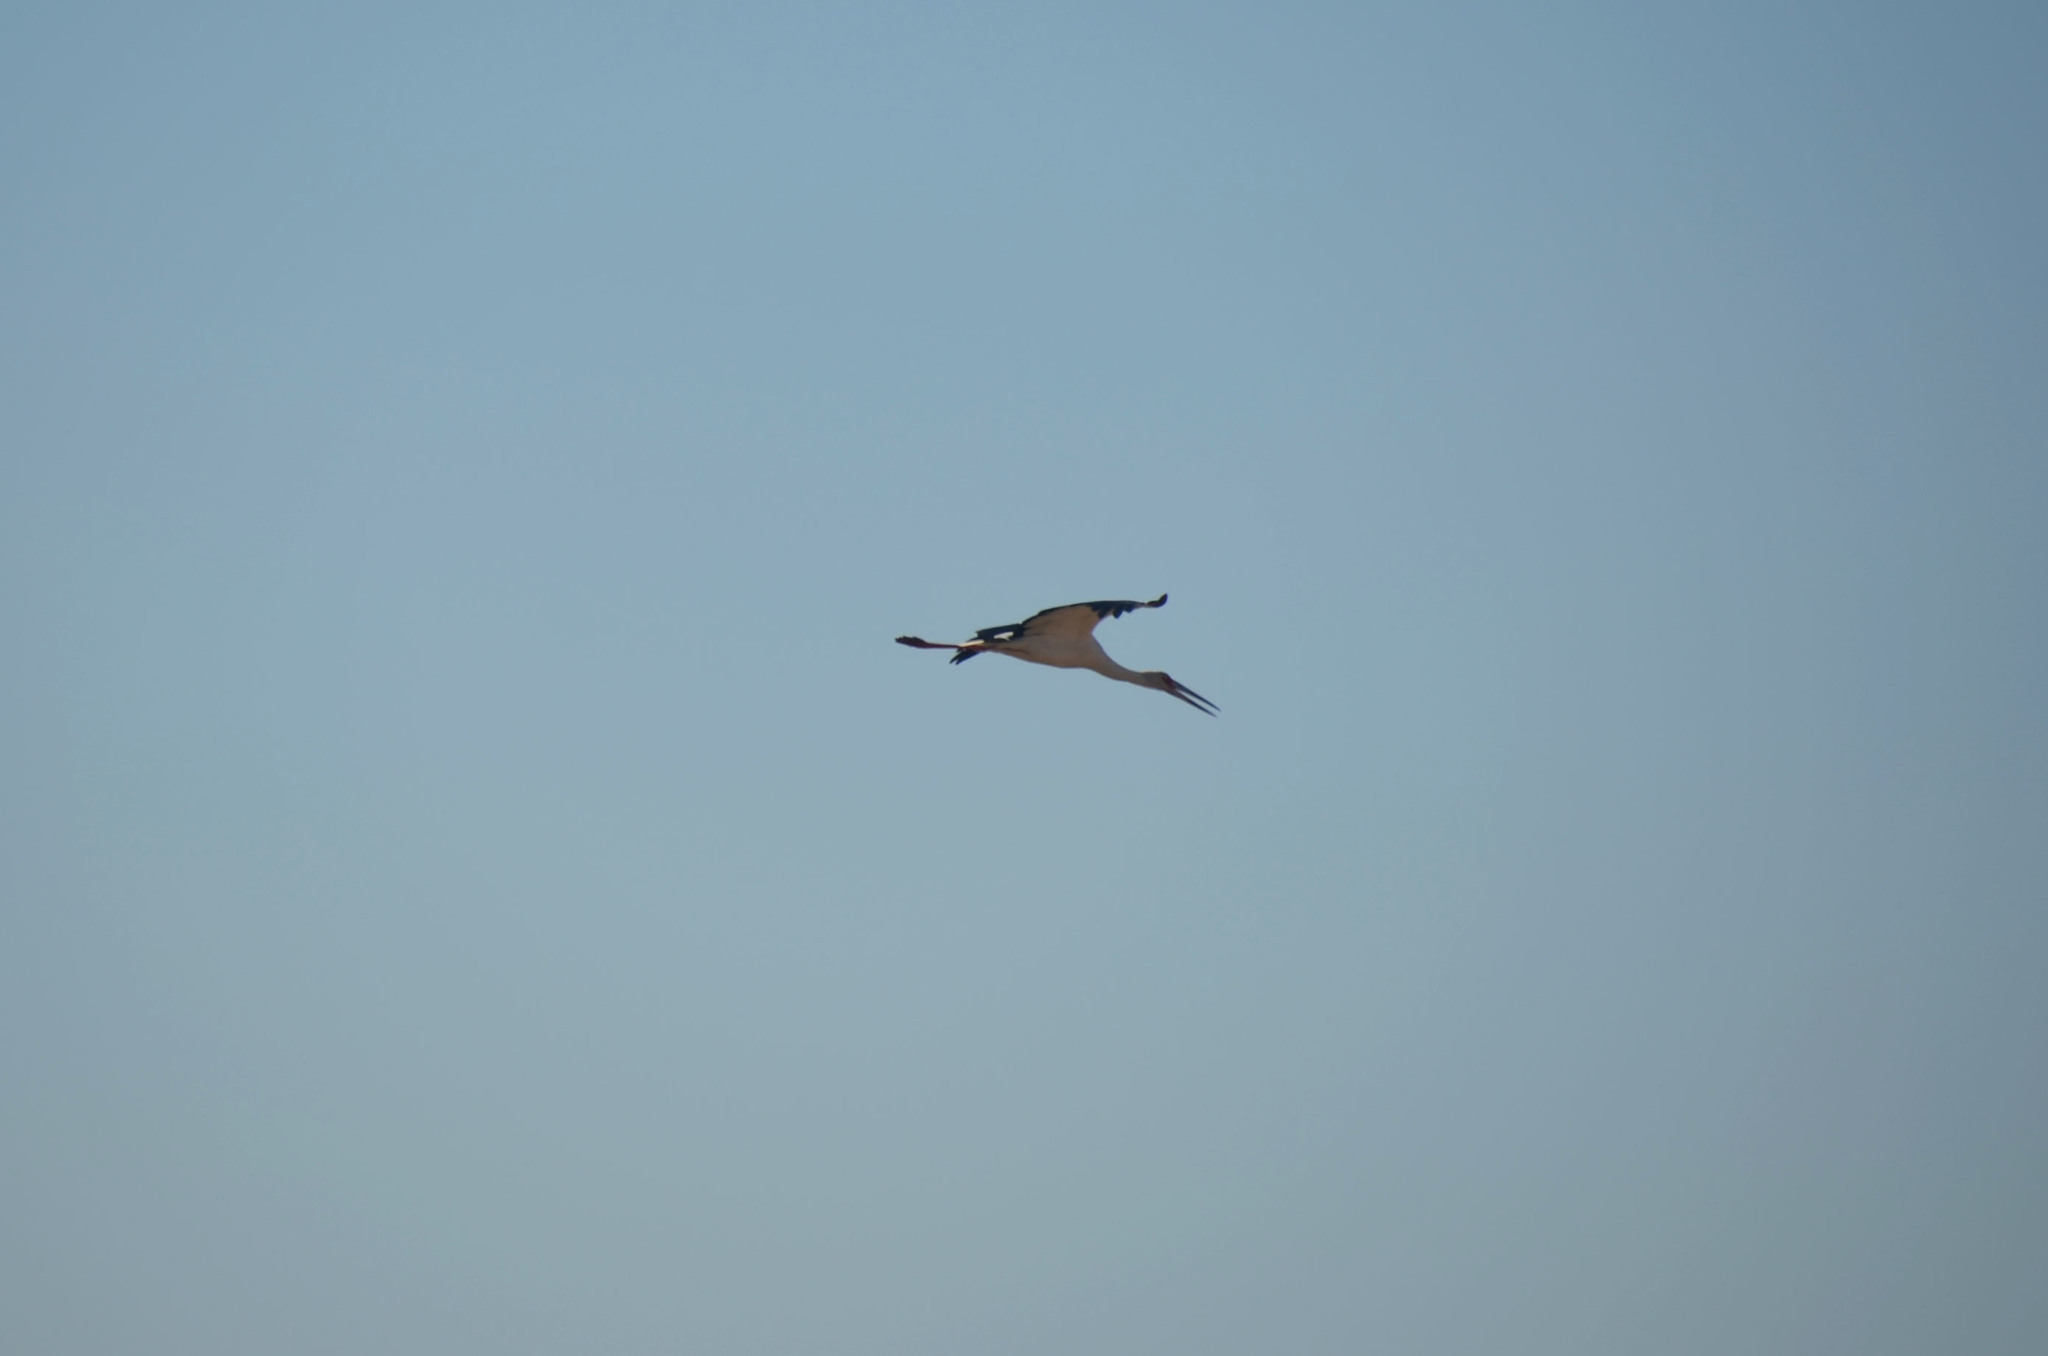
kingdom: Animalia
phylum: Chordata
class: Aves
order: Ciconiiformes
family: Ciconiidae
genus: Ciconia
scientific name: Ciconia maguari
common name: Maguari stork
